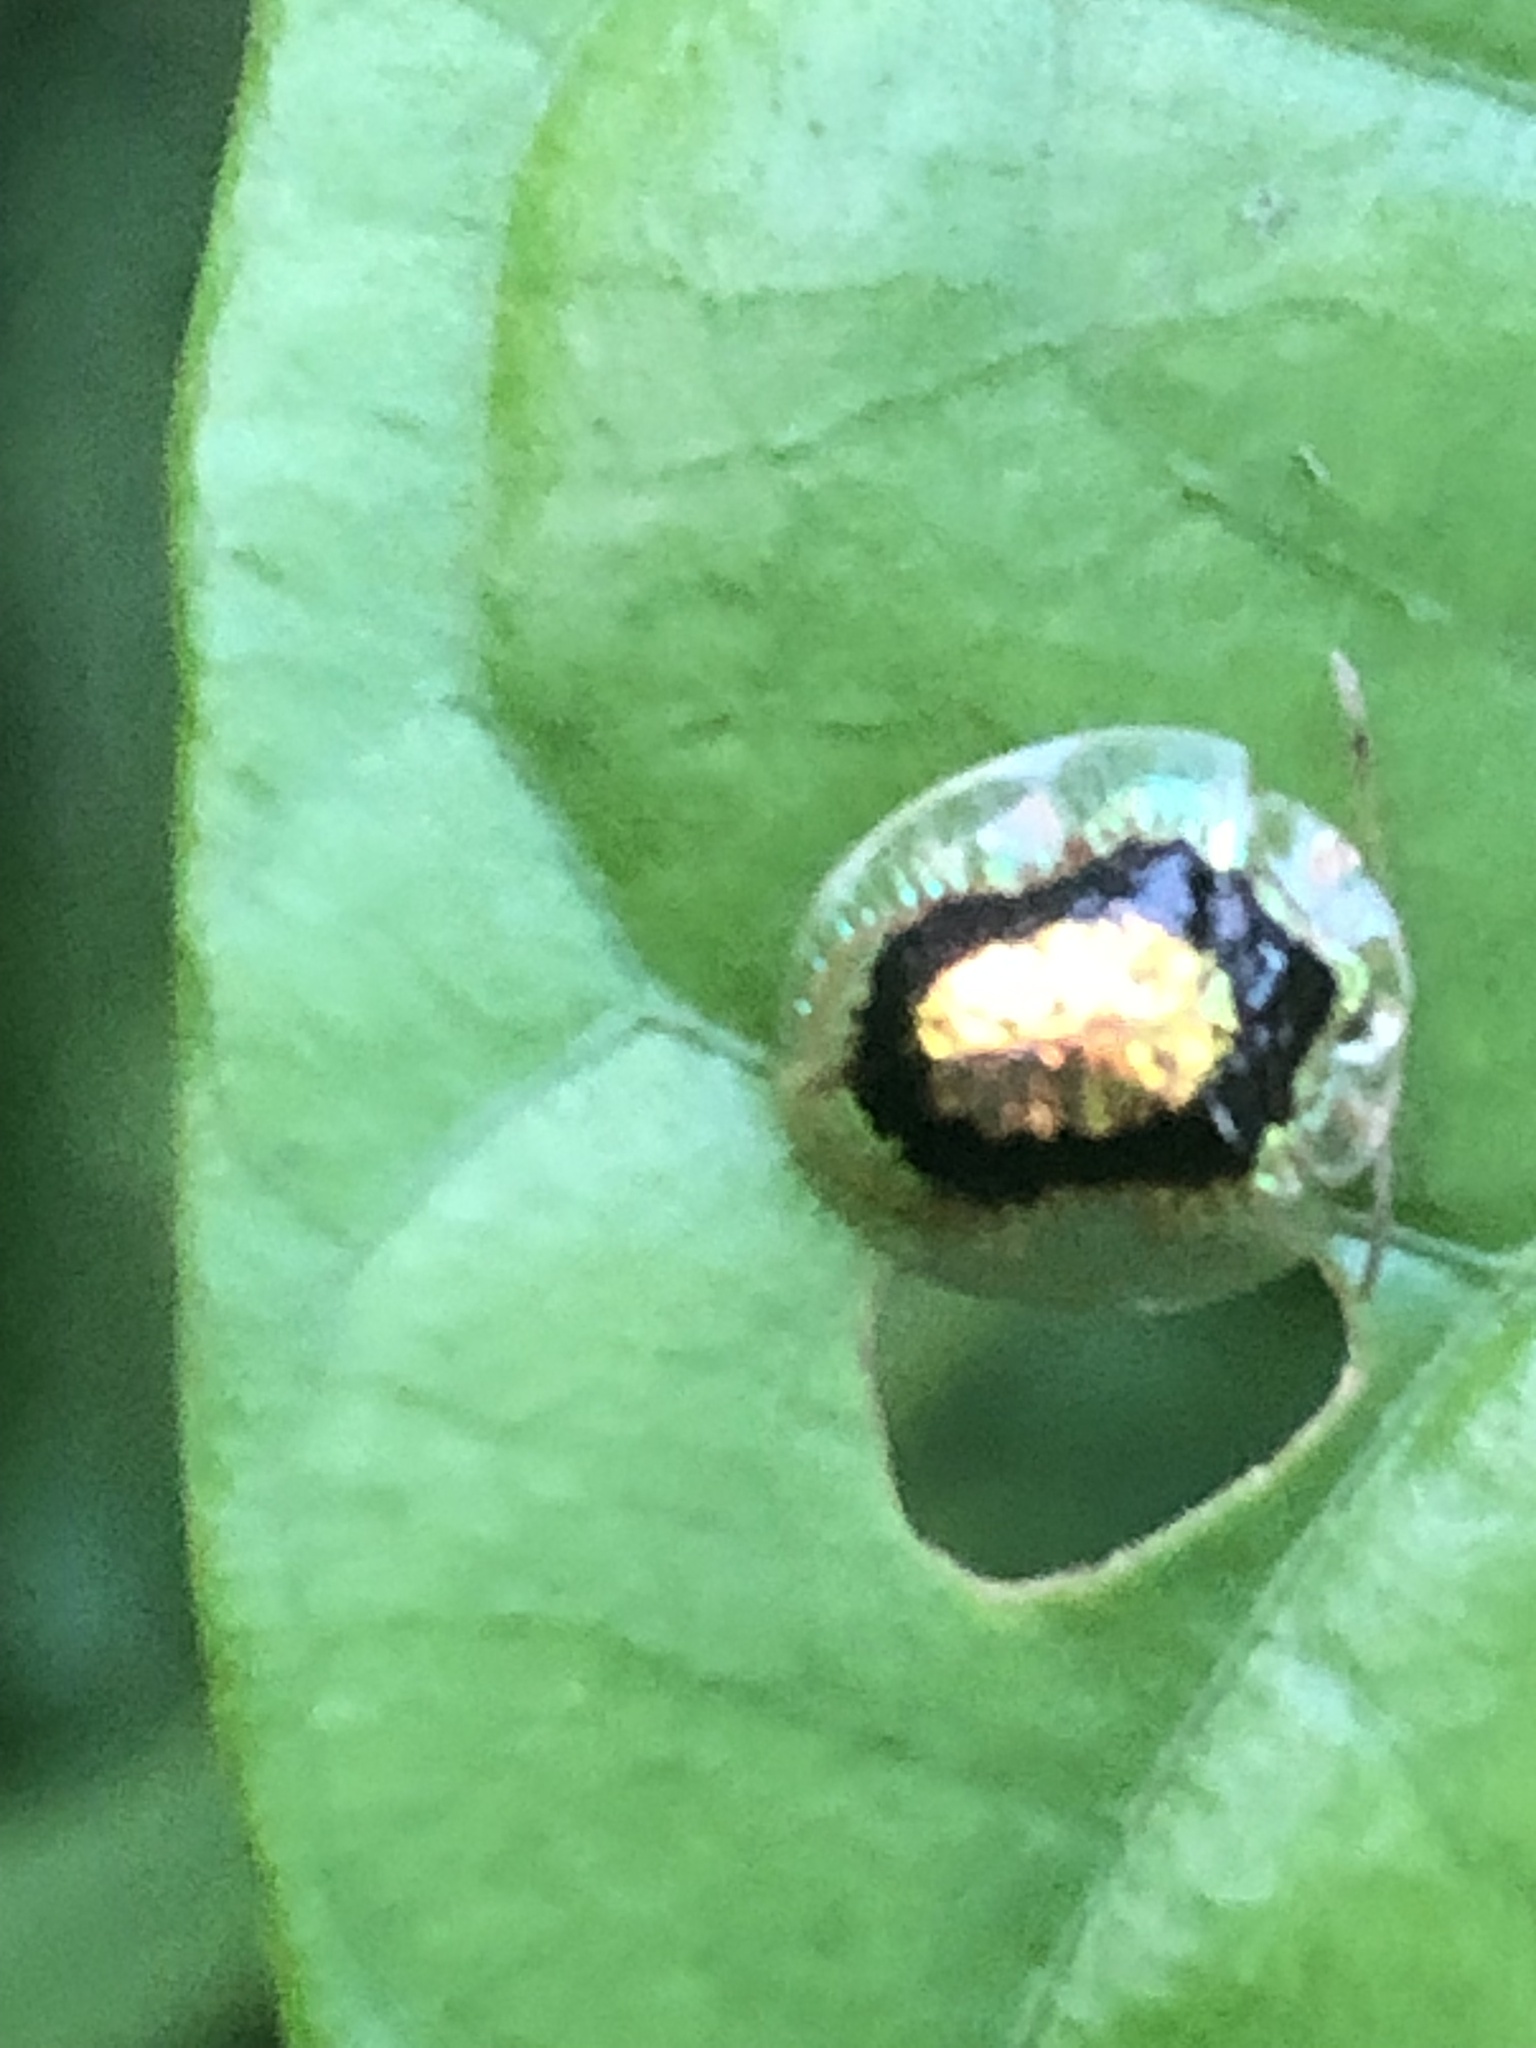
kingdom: Animalia
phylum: Arthropoda
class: Insecta
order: Coleoptera
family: Chrysomelidae
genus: Microctenochira
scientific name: Microctenochira sertata
